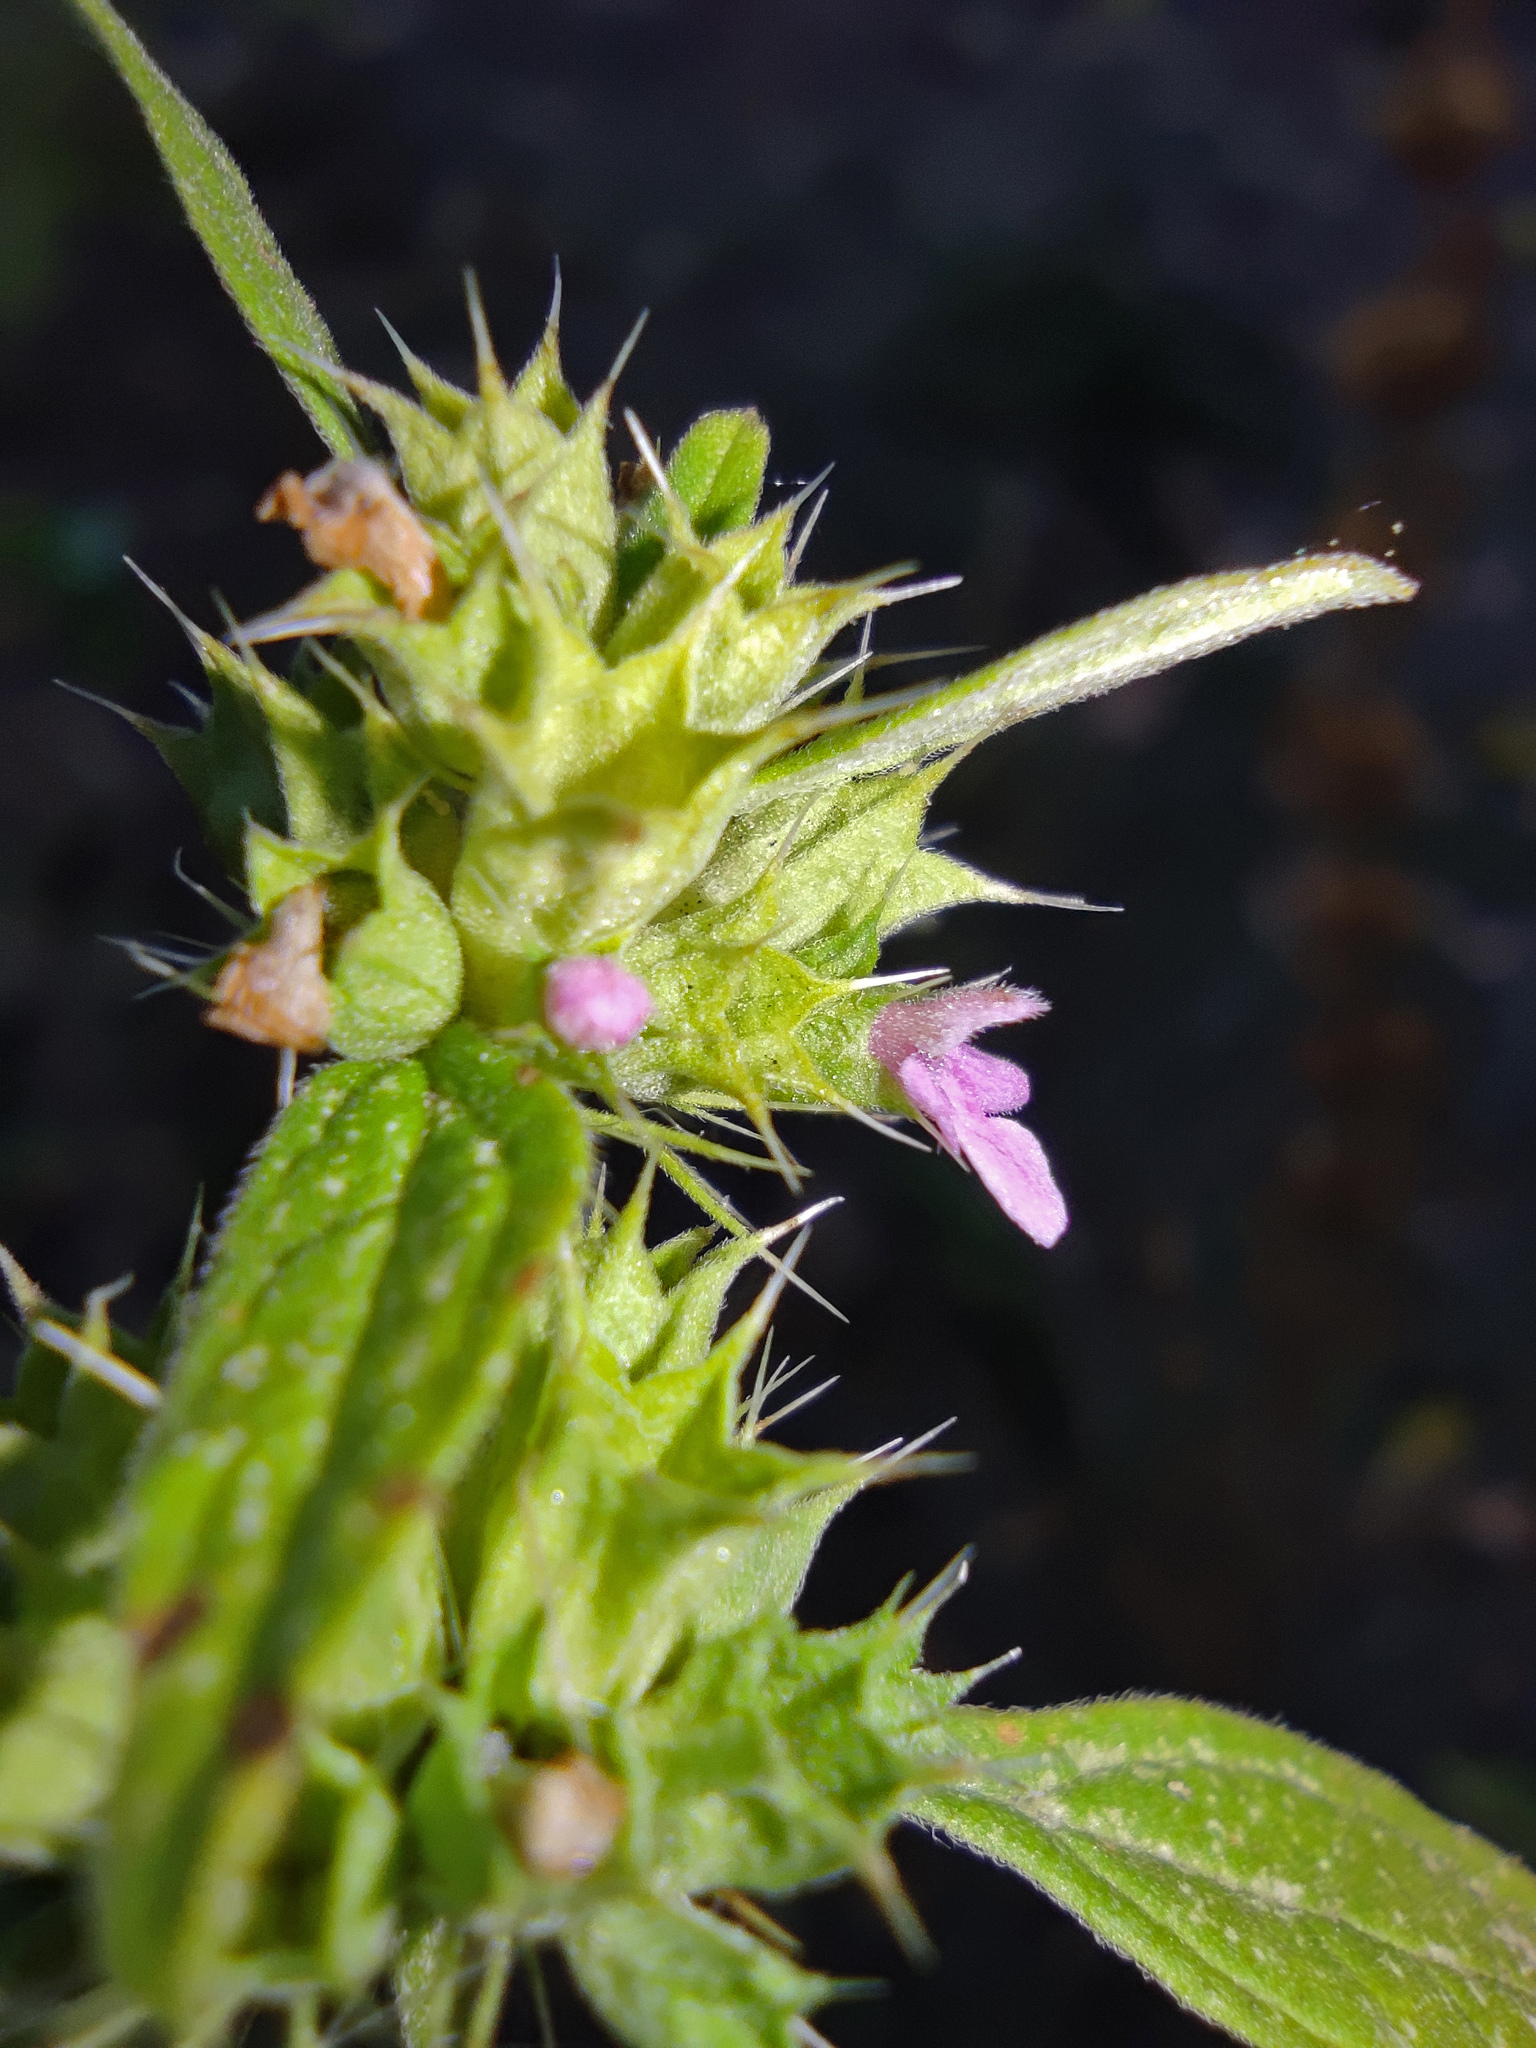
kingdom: Plantae
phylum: Tracheophyta
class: Magnoliopsida
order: Lamiales
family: Lamiaceae
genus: Chaiturus
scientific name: Chaiturus marrubiastrum
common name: Lion's tail
